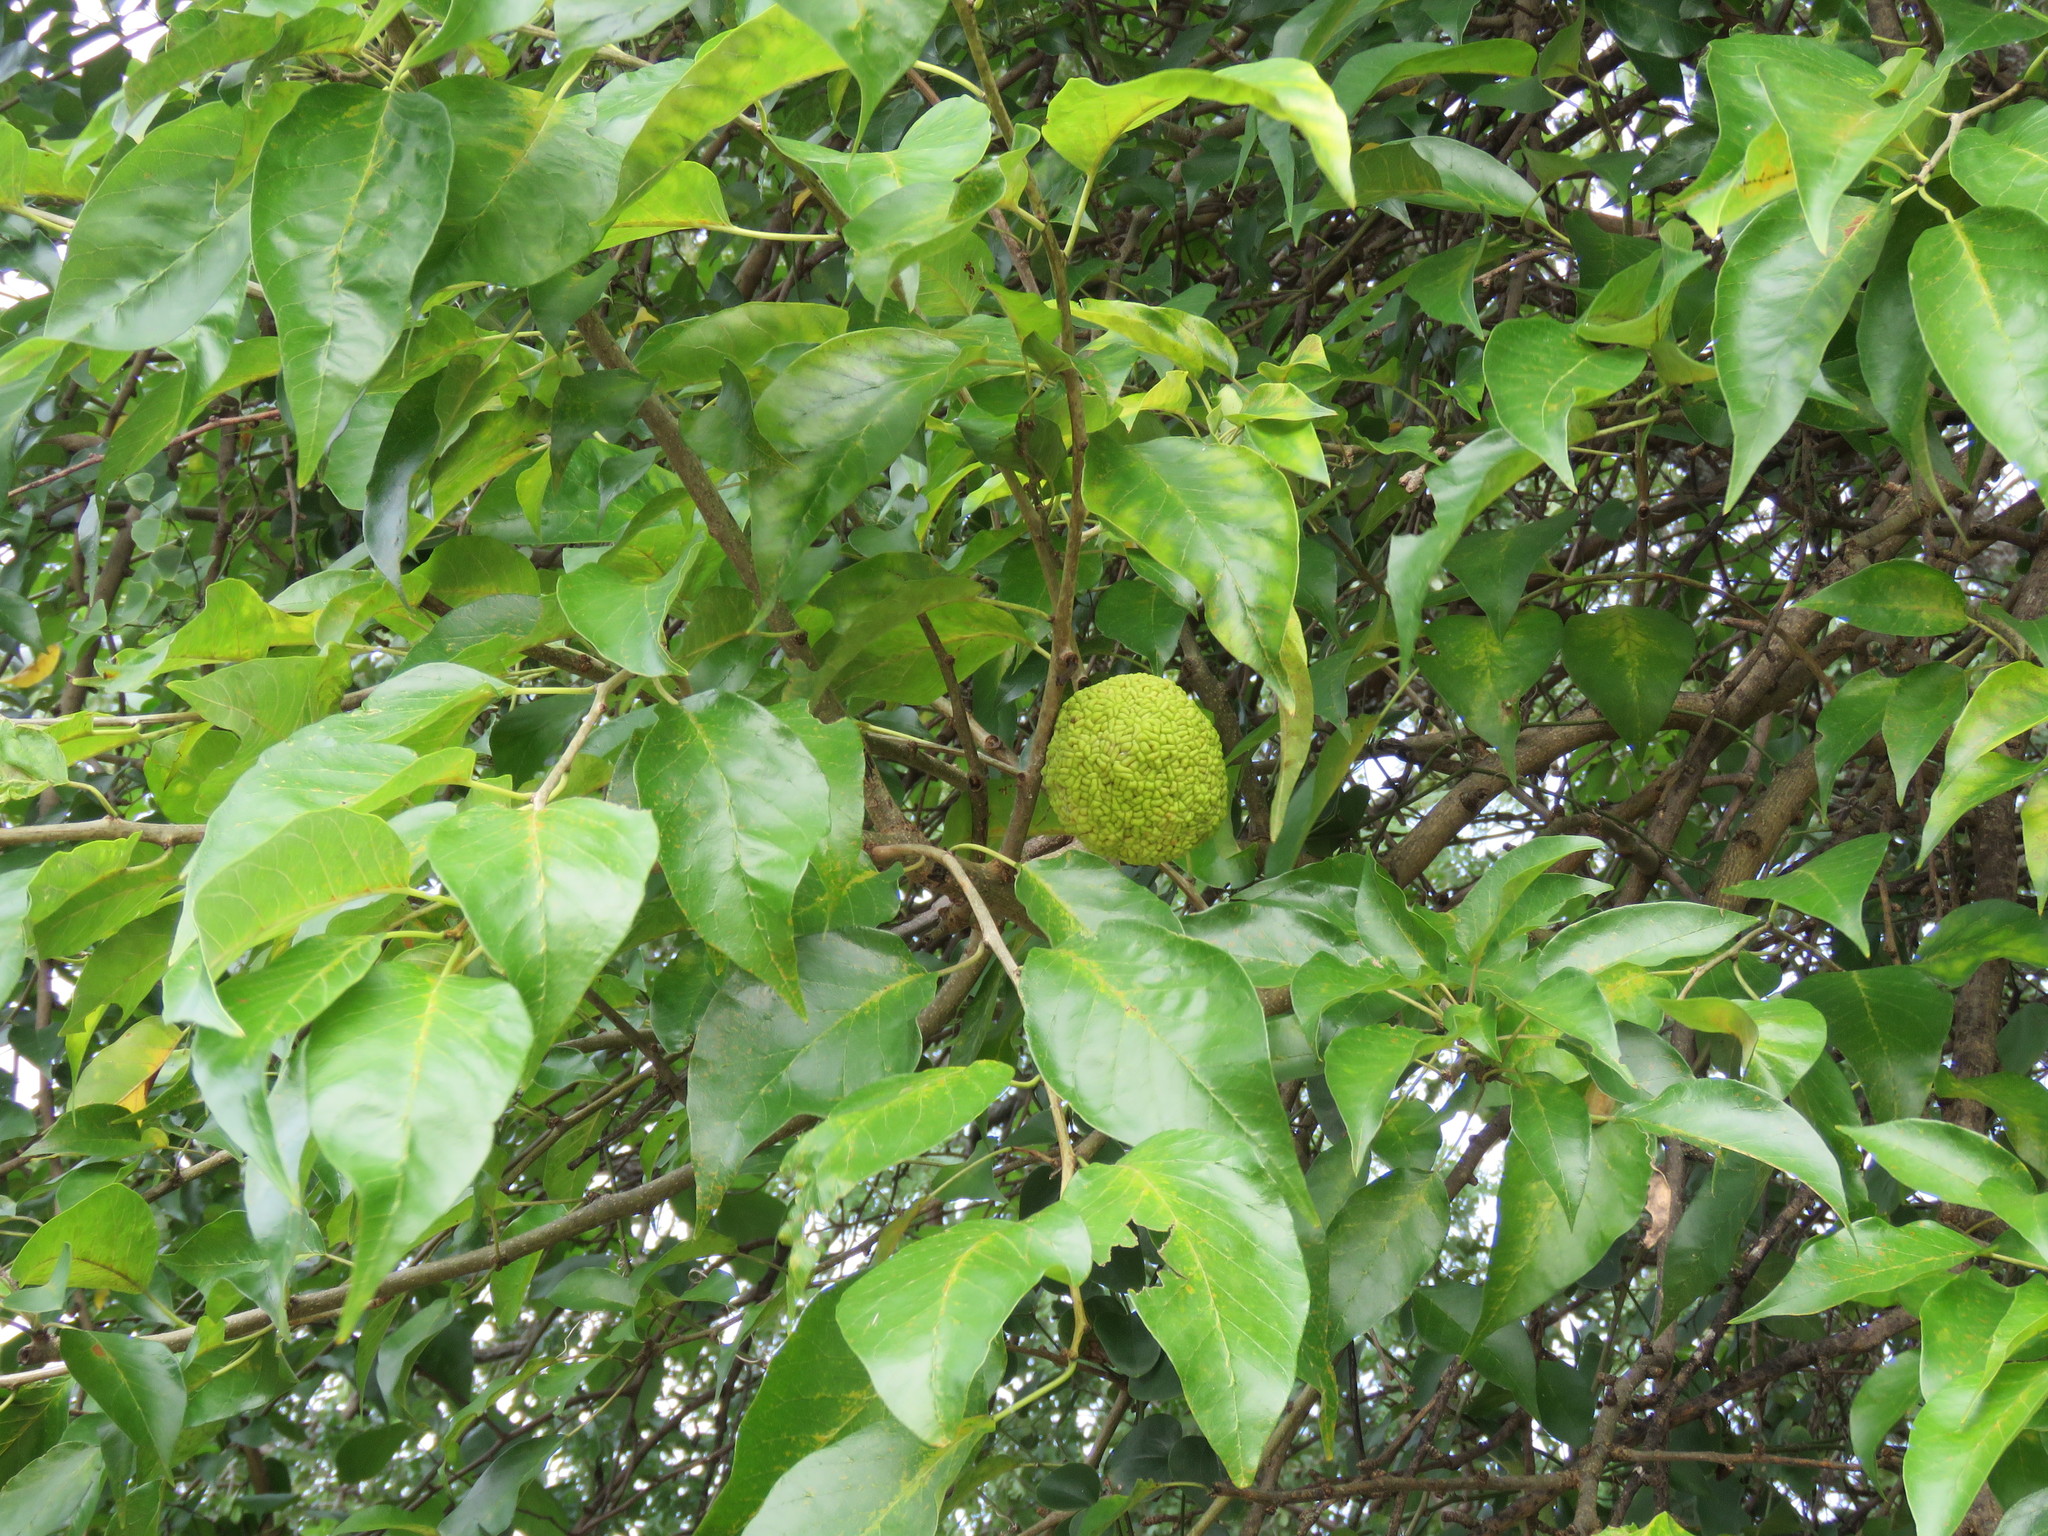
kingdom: Plantae
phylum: Tracheophyta
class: Magnoliopsida
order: Rosales
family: Moraceae
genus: Maclura
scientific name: Maclura pomifera
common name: Osage-orange
